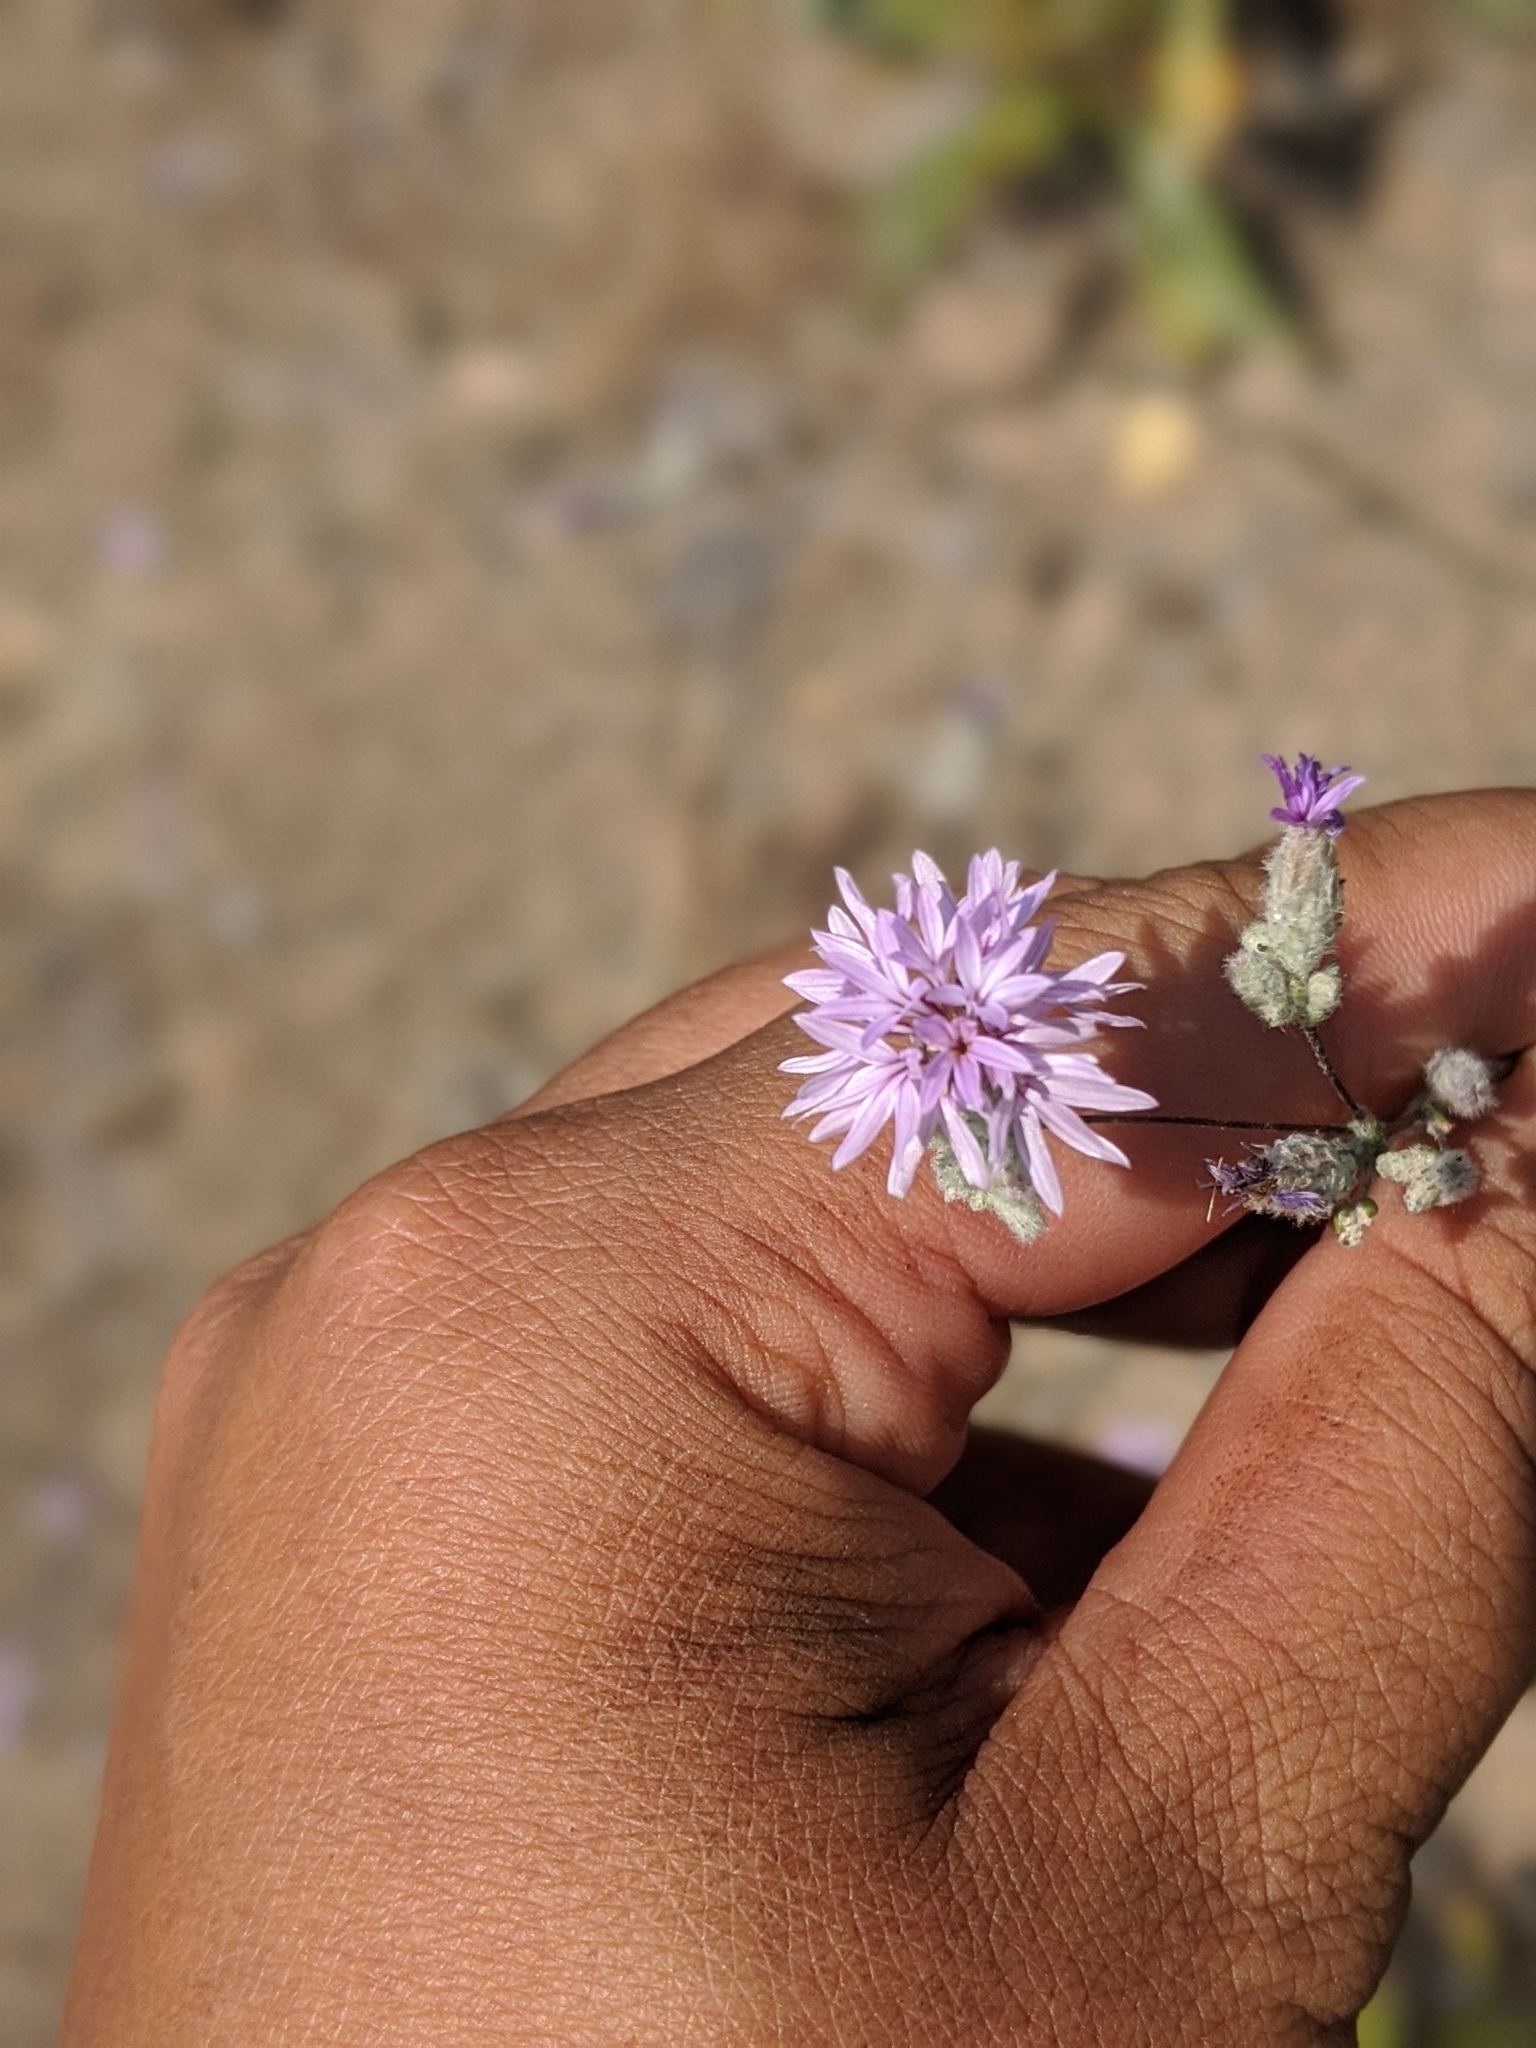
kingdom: Plantae
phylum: Tracheophyta
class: Magnoliopsida
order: Asterales
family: Asteraceae
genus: Lessingia
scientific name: Lessingia leptoclada
